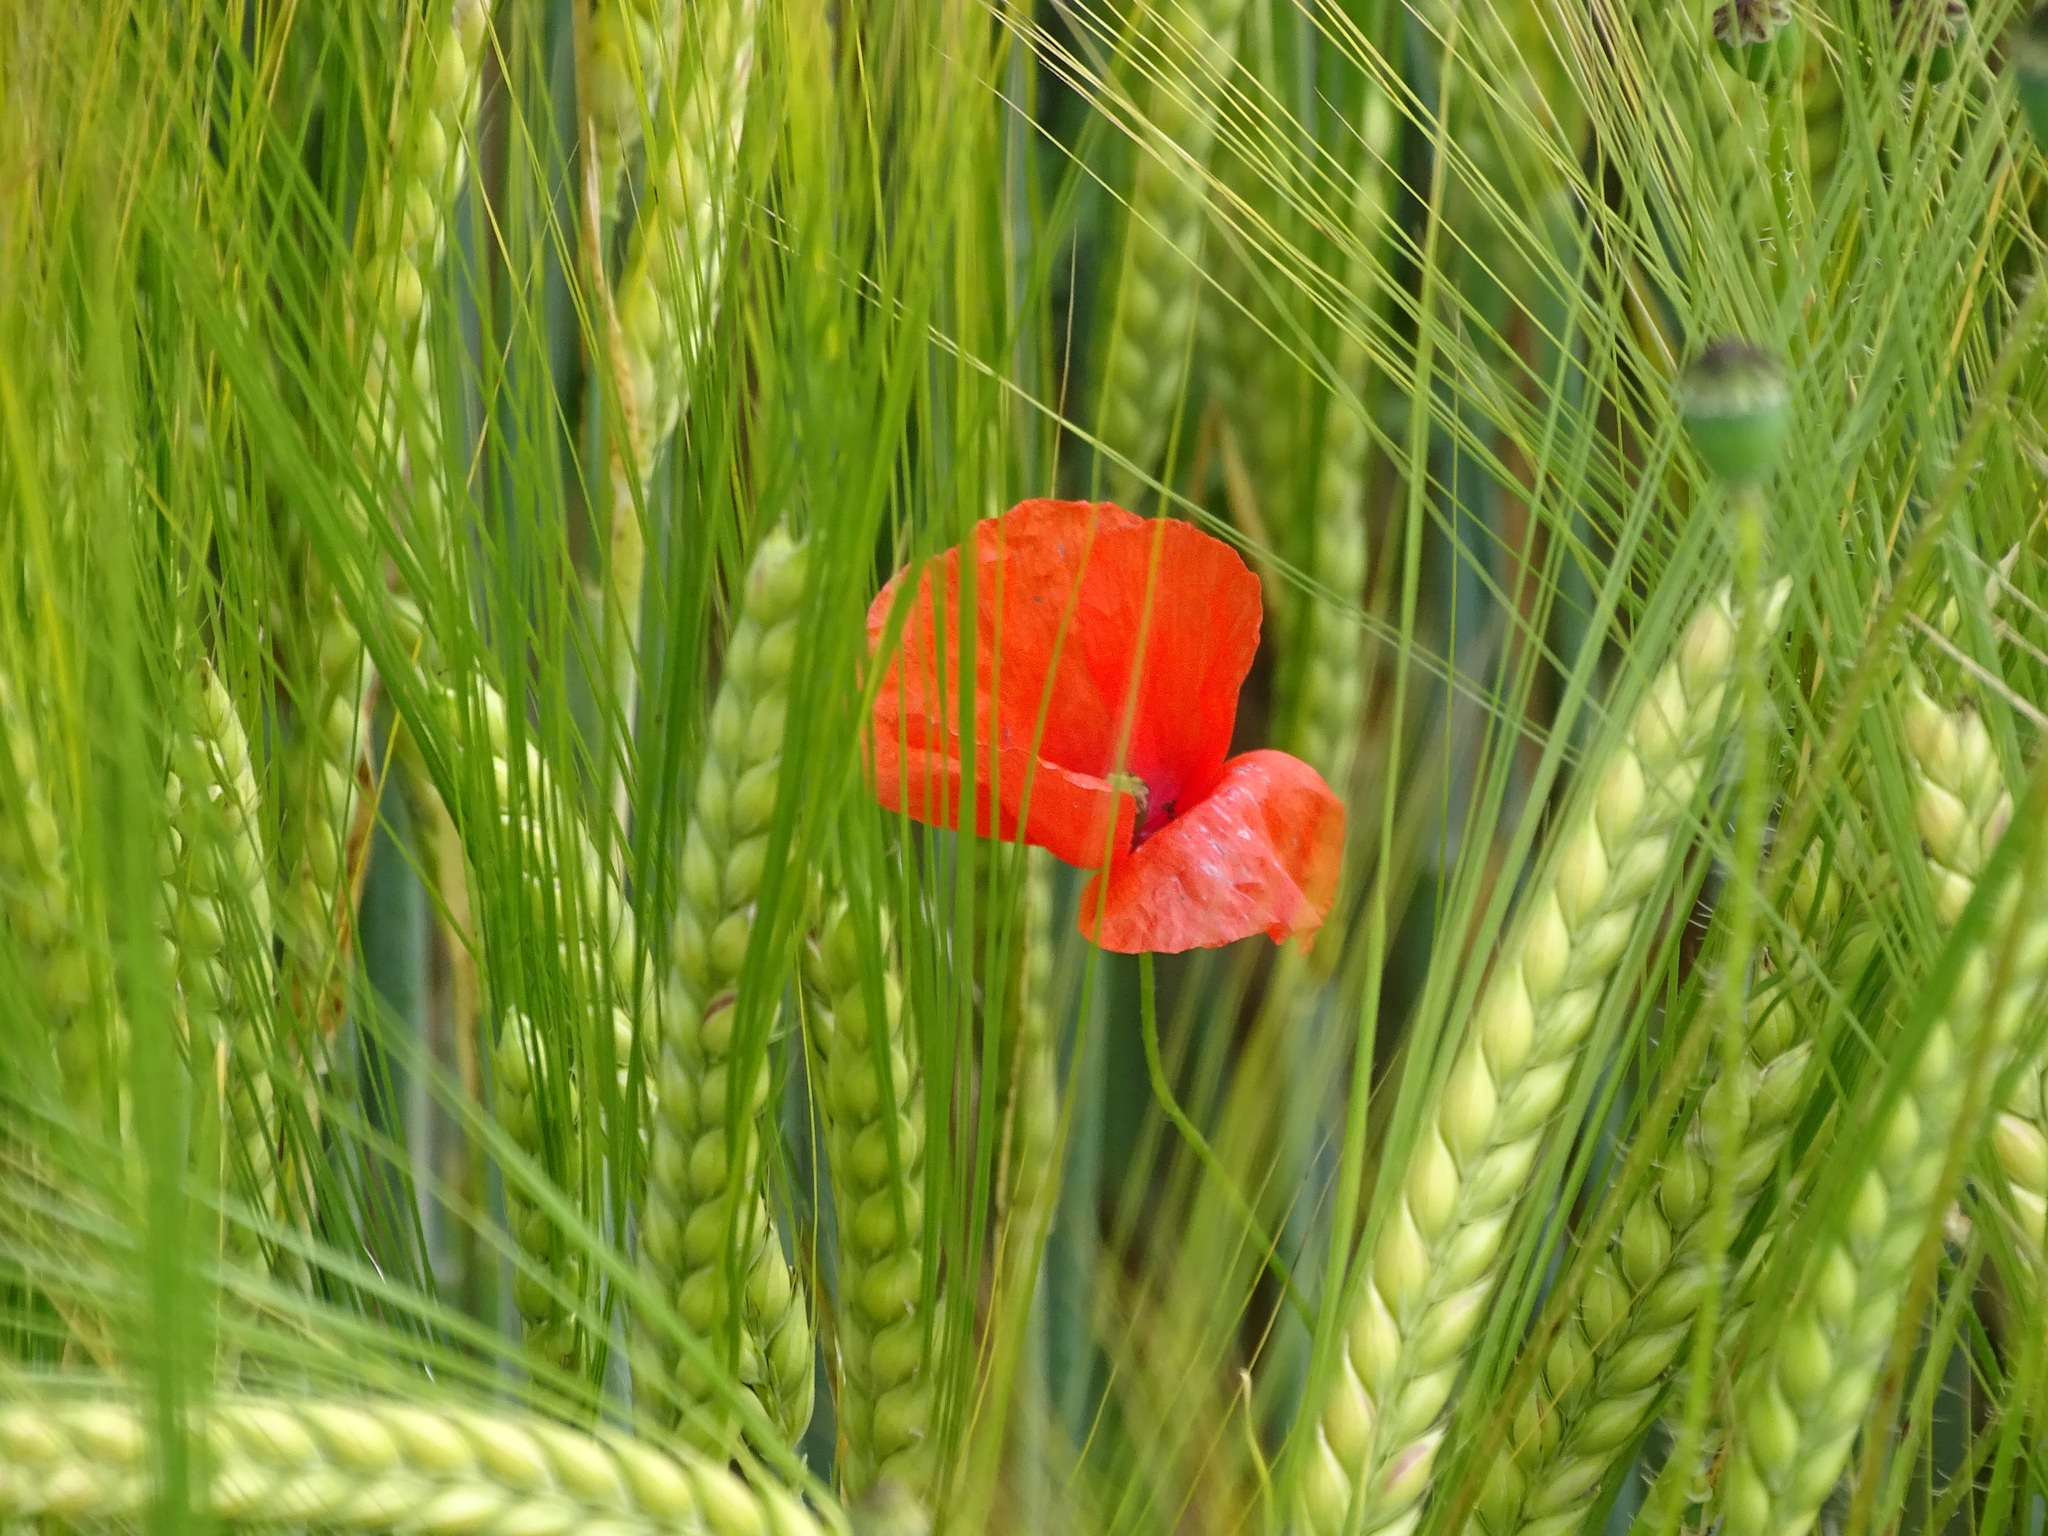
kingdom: Plantae
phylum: Tracheophyta
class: Magnoliopsida
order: Ranunculales
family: Papaveraceae
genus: Papaver
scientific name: Papaver rhoeas
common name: Corn poppy
